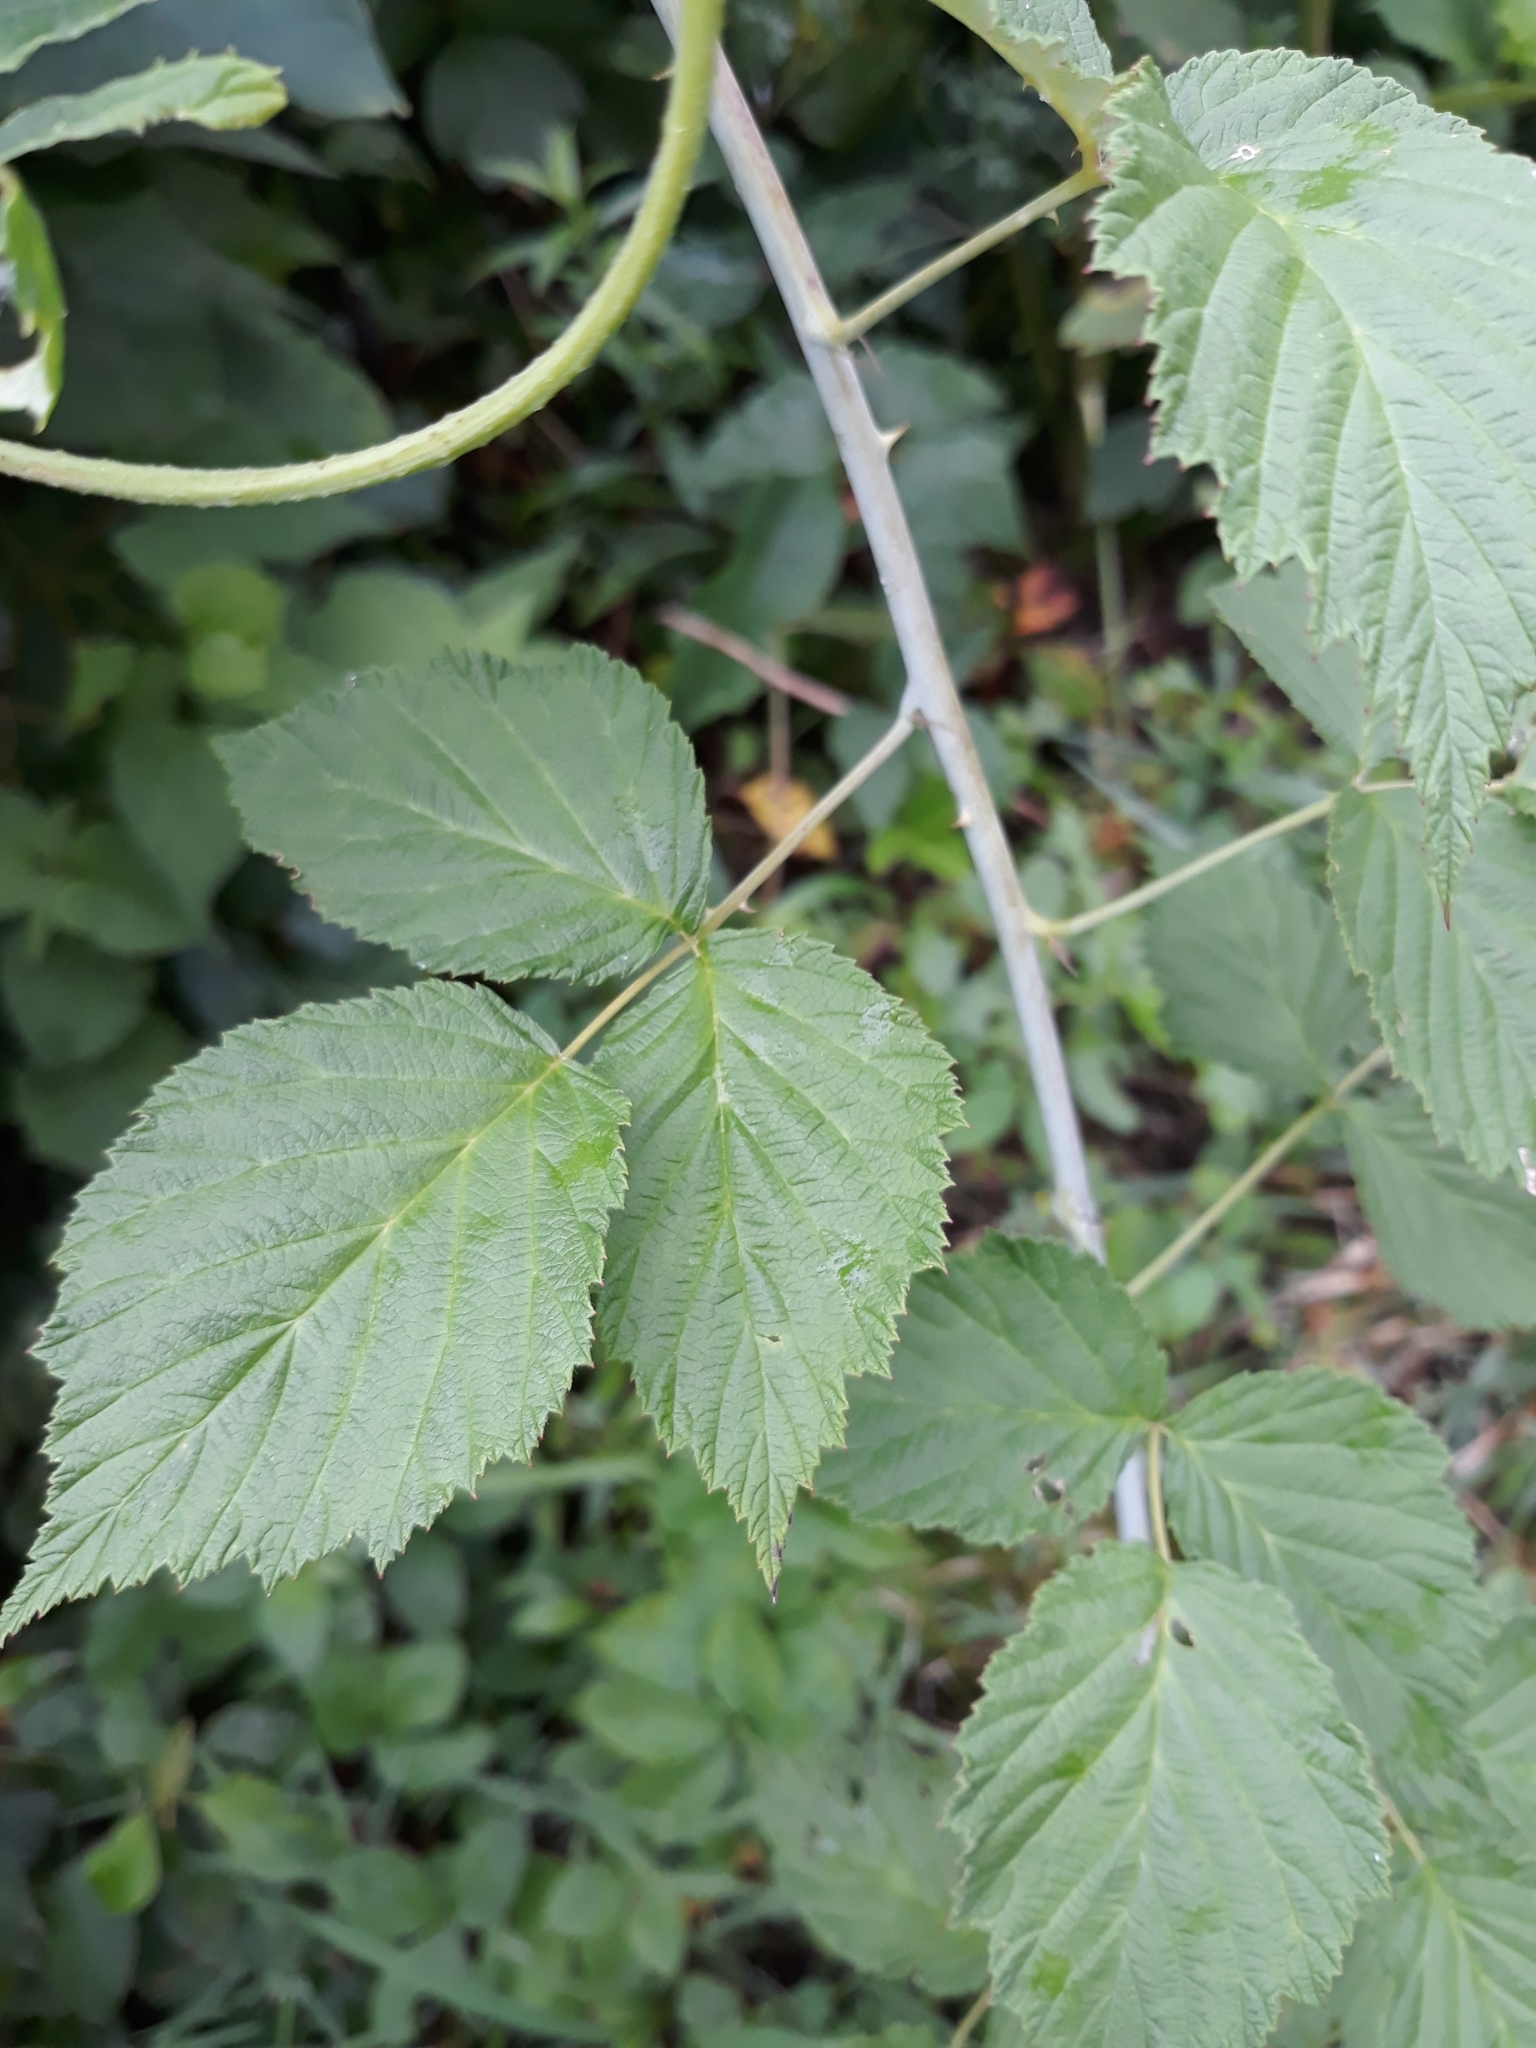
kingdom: Plantae
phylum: Tracheophyta
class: Magnoliopsida
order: Rosales
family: Rosaceae
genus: Rubus
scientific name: Rubus occidentalis
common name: Black raspberry
